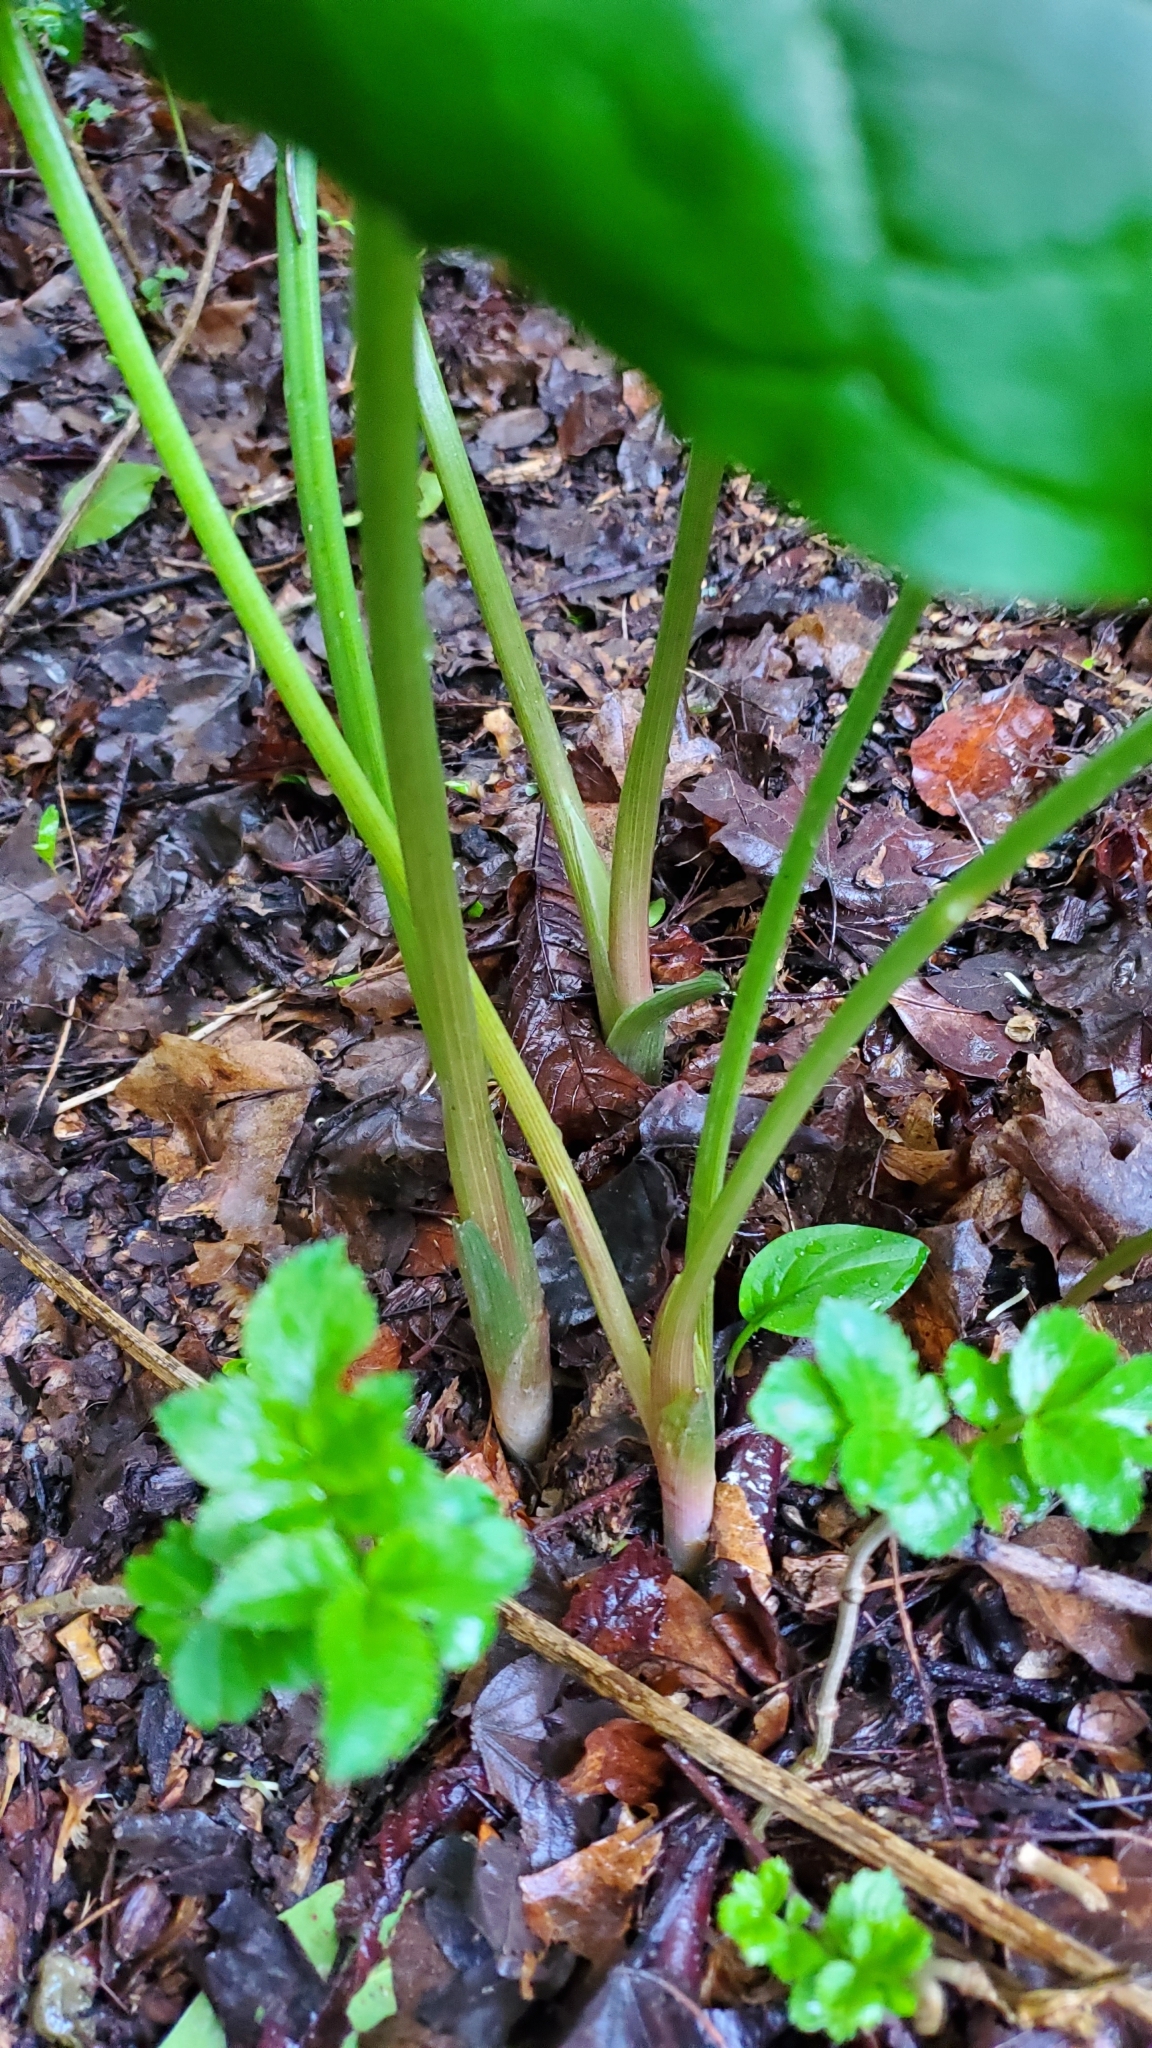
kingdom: Plantae
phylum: Tracheophyta
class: Liliopsida
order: Alismatales
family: Araceae
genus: Arum
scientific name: Arum maculatum
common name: Lords-and-ladies
